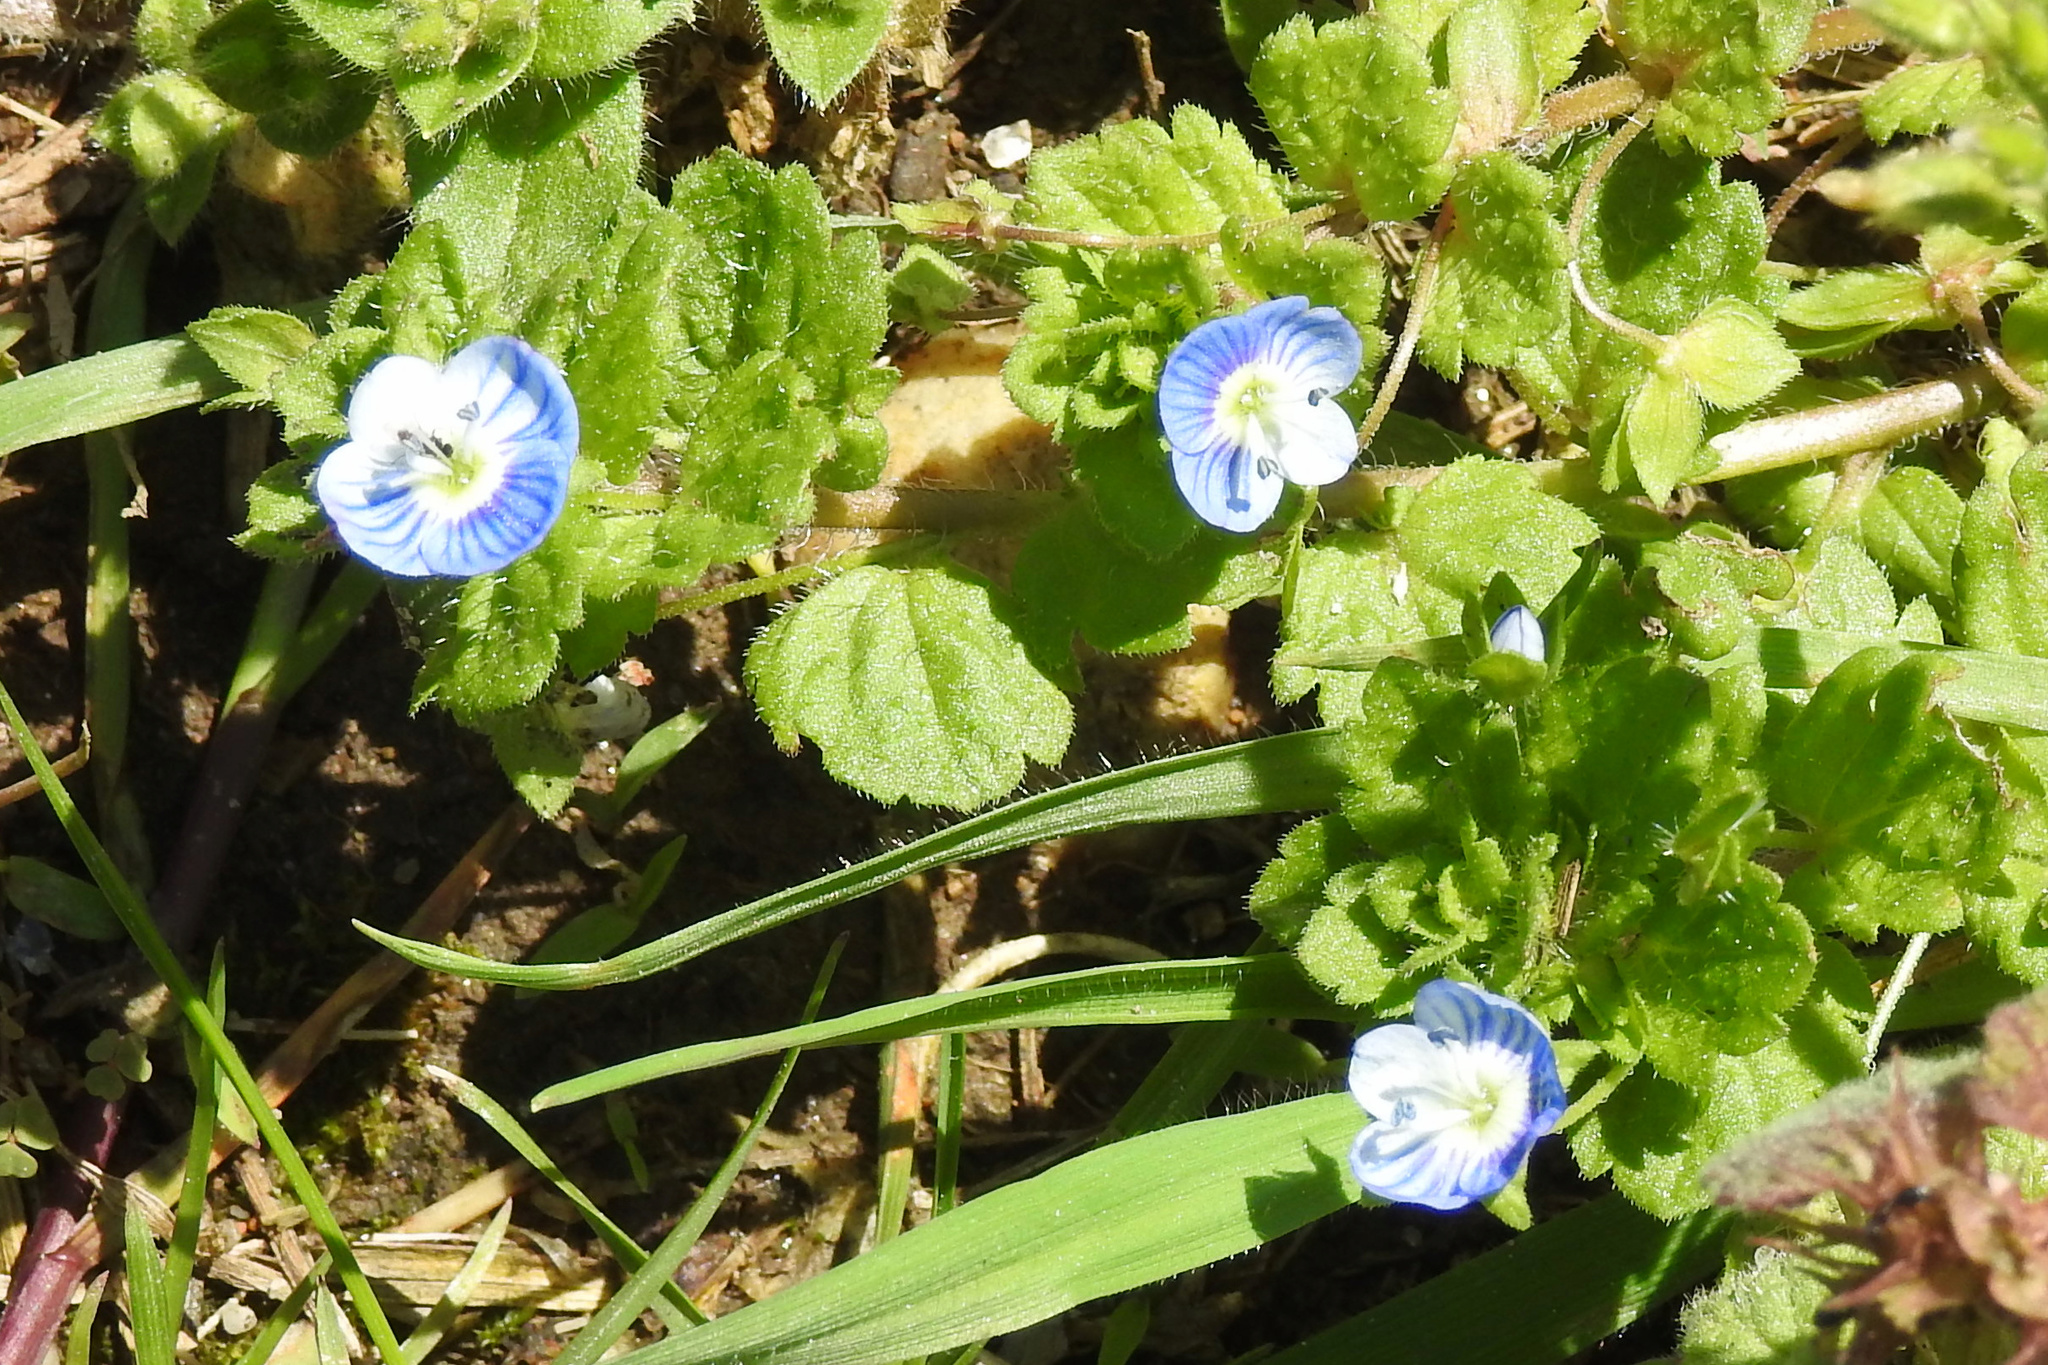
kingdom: Plantae
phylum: Tracheophyta
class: Magnoliopsida
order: Lamiales
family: Plantaginaceae
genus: Veronica
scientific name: Veronica persica
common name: Common field-speedwell
